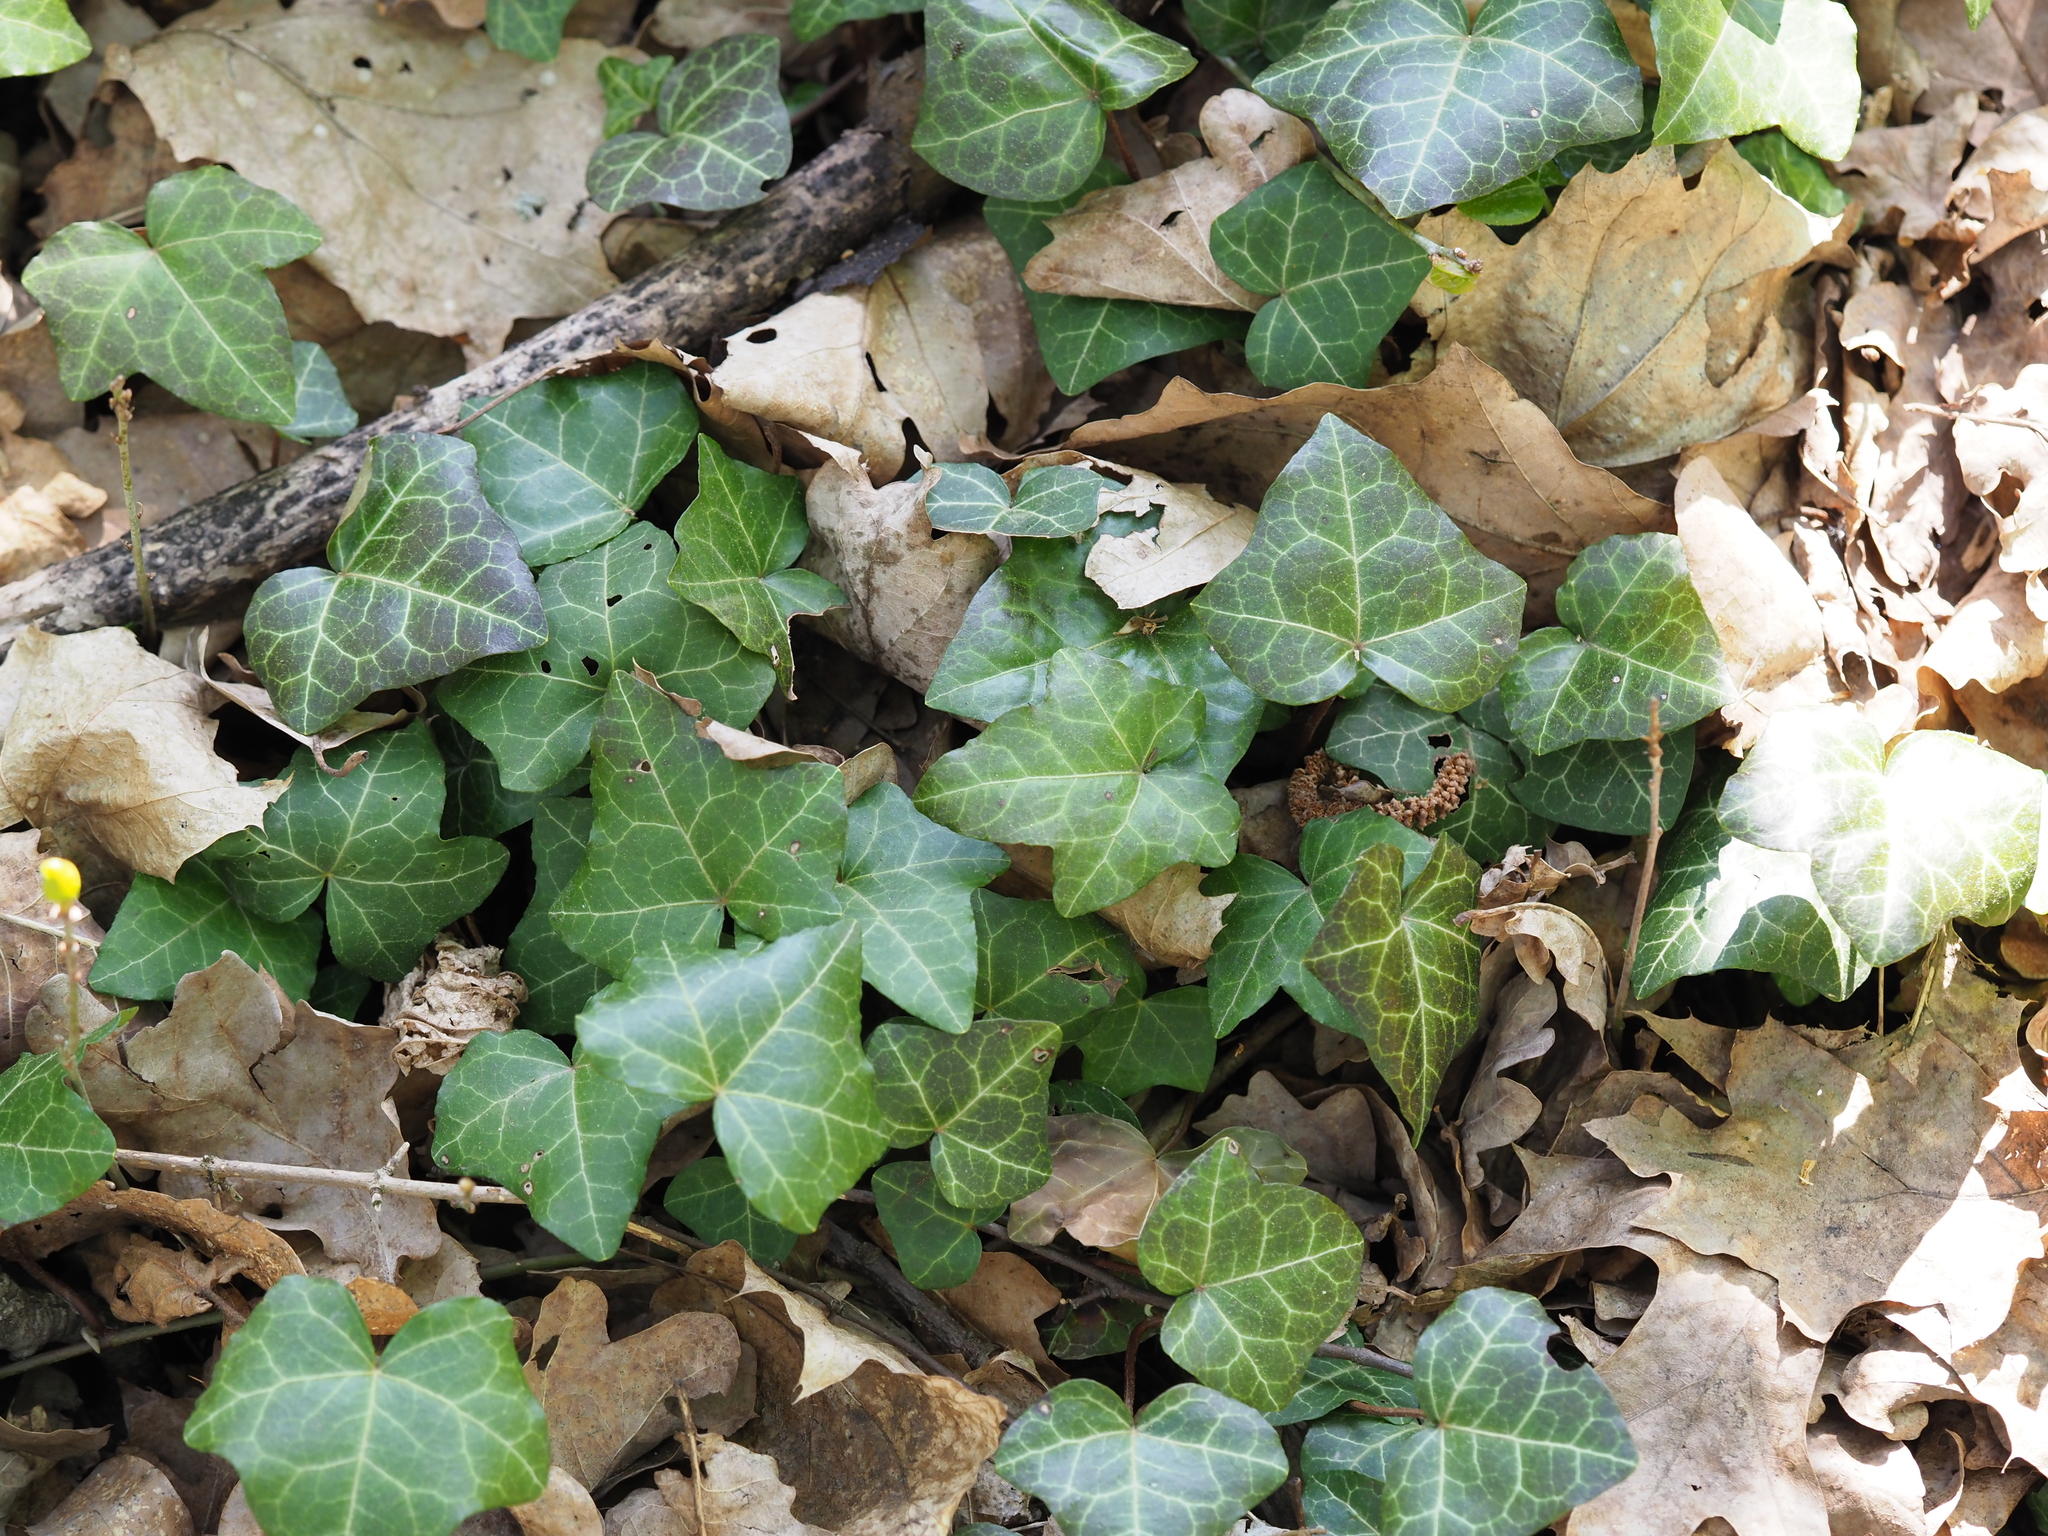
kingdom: Plantae
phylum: Tracheophyta
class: Magnoliopsida
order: Apiales
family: Araliaceae
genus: Hedera
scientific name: Hedera helix
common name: Ivy
